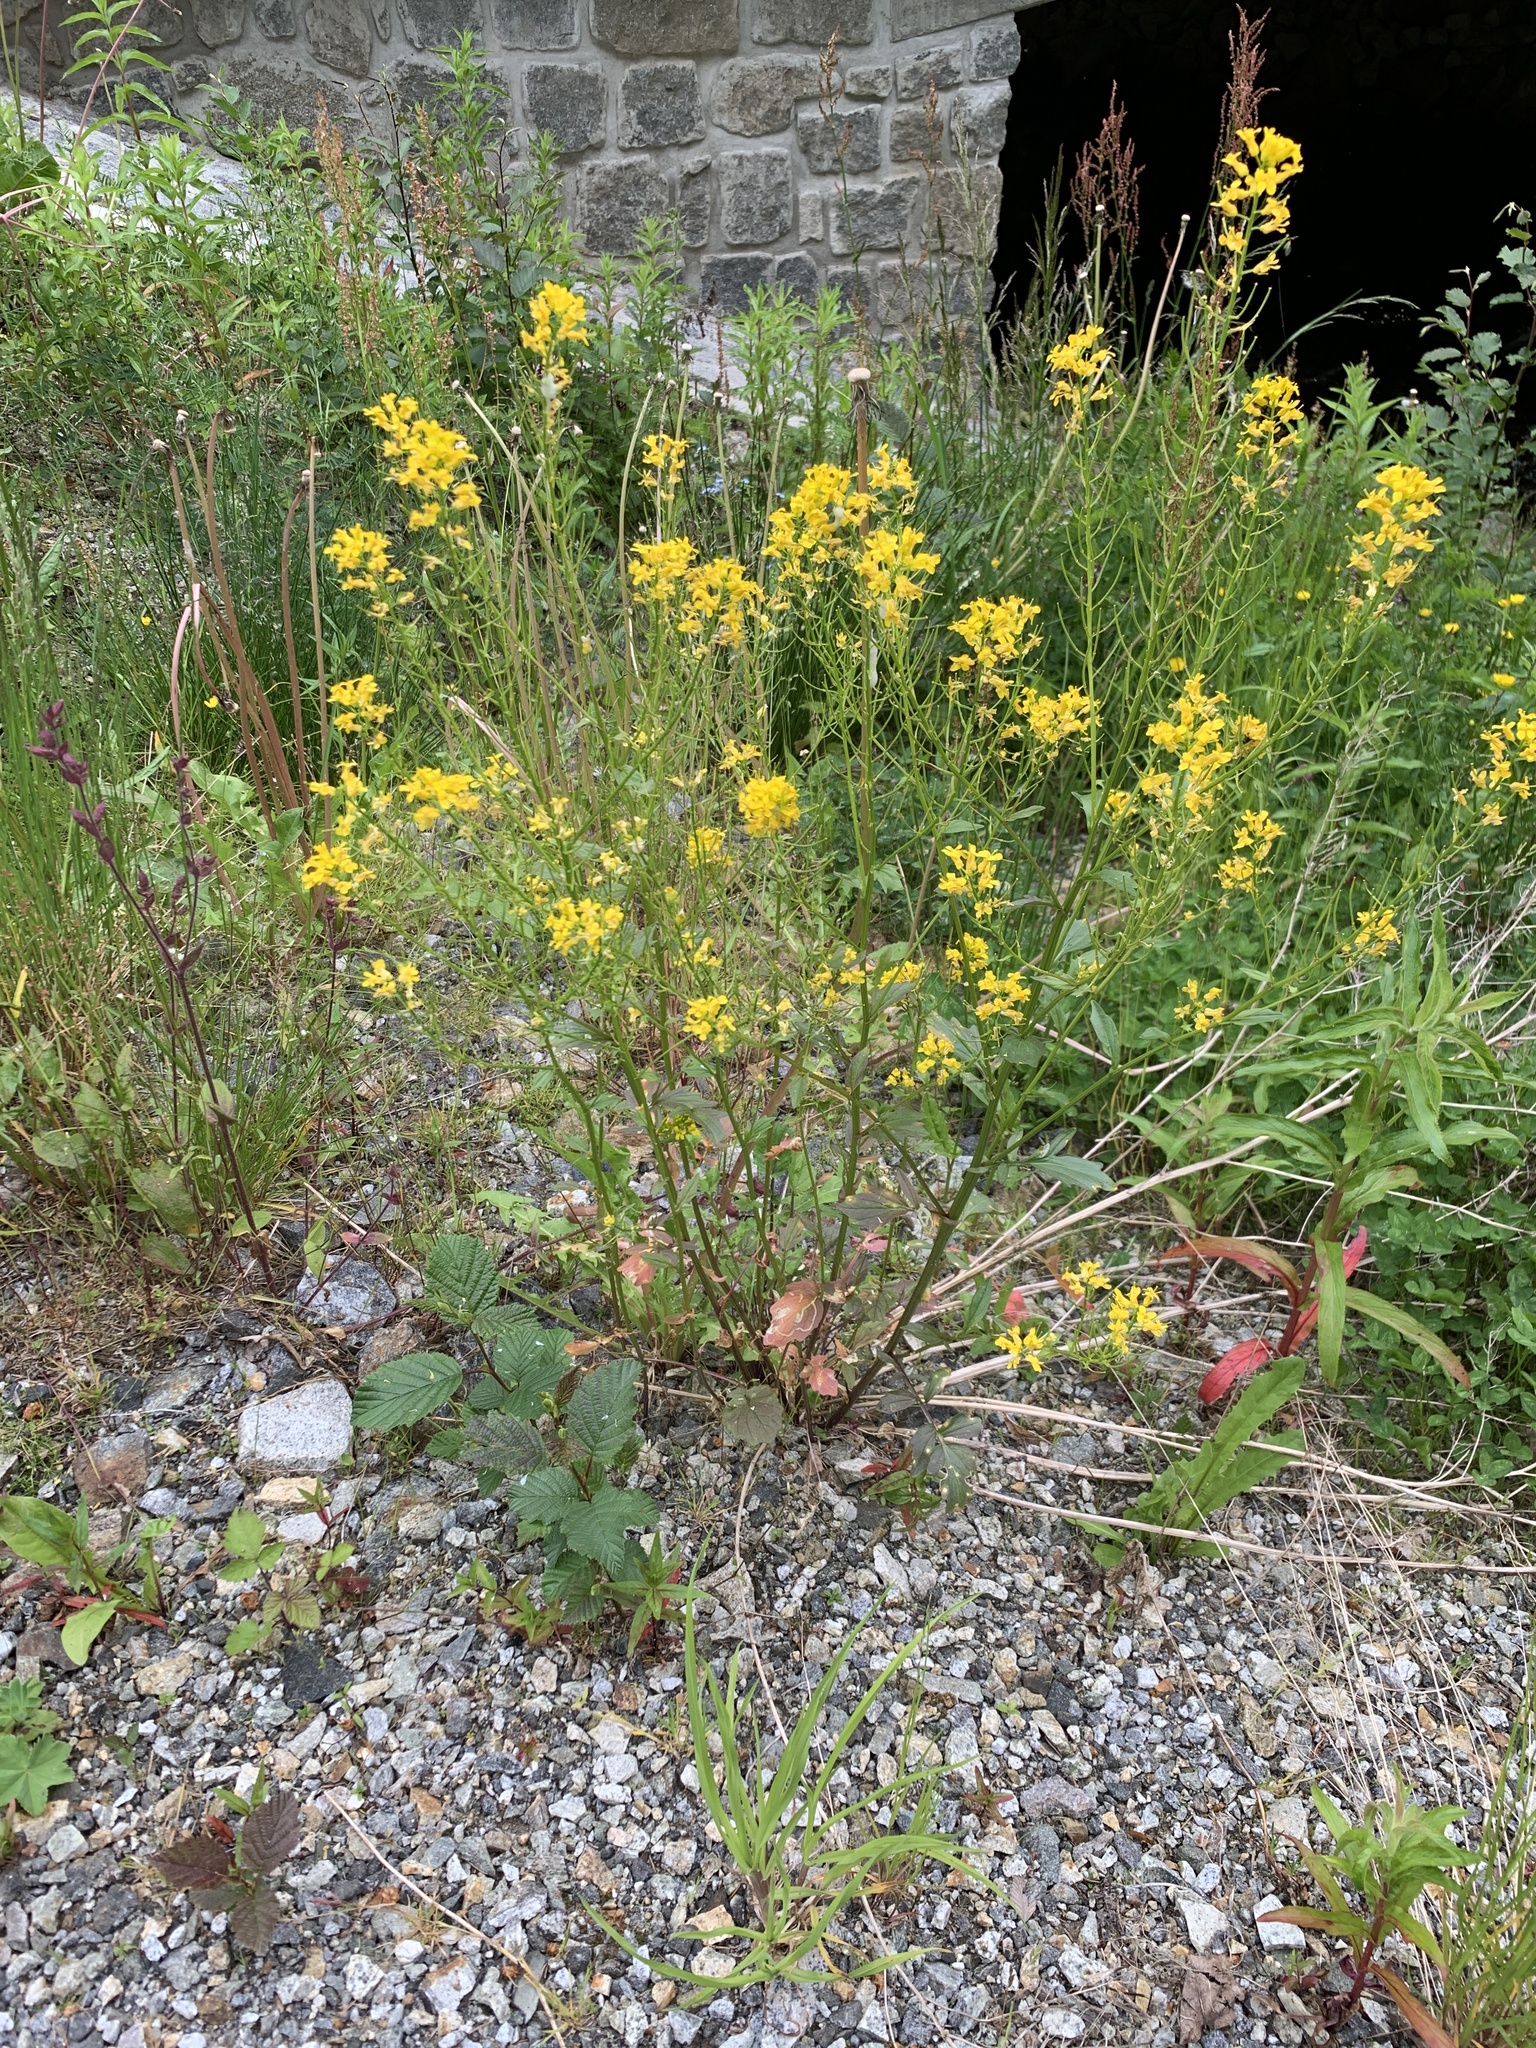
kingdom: Plantae
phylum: Tracheophyta
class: Magnoliopsida
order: Brassicales
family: Brassicaceae
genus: Barbarea
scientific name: Barbarea vulgaris
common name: Cressy-greens
